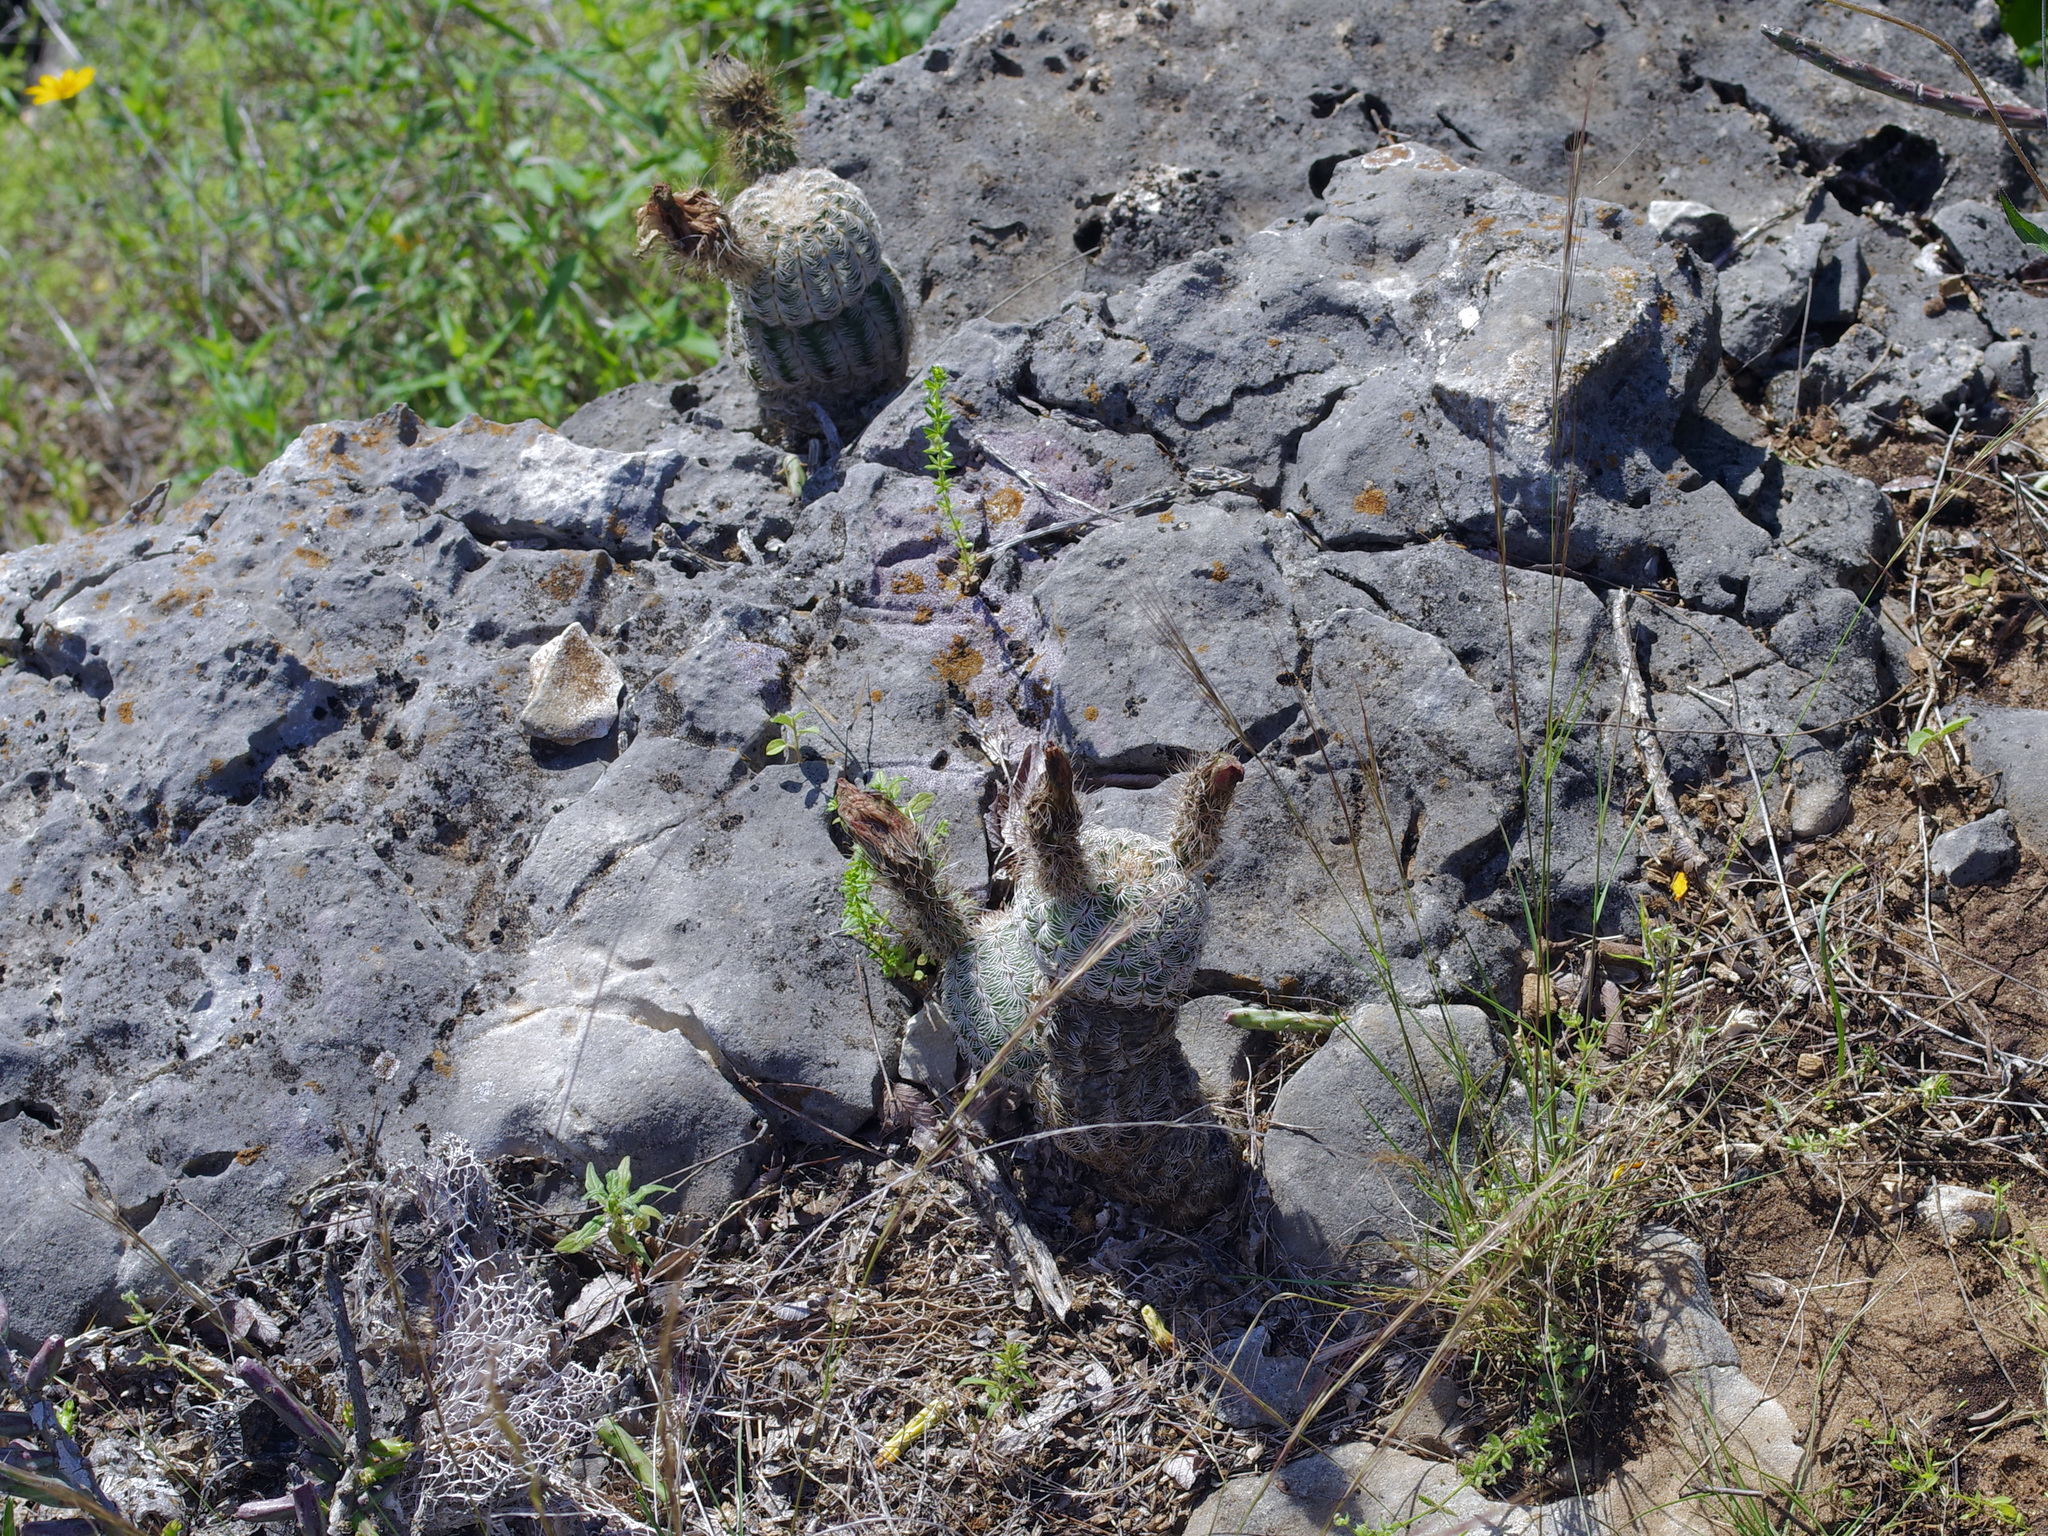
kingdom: Plantae
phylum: Tracheophyta
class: Magnoliopsida
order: Caryophyllales
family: Cactaceae
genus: Echinocereus
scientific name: Echinocereus reichenbachii
